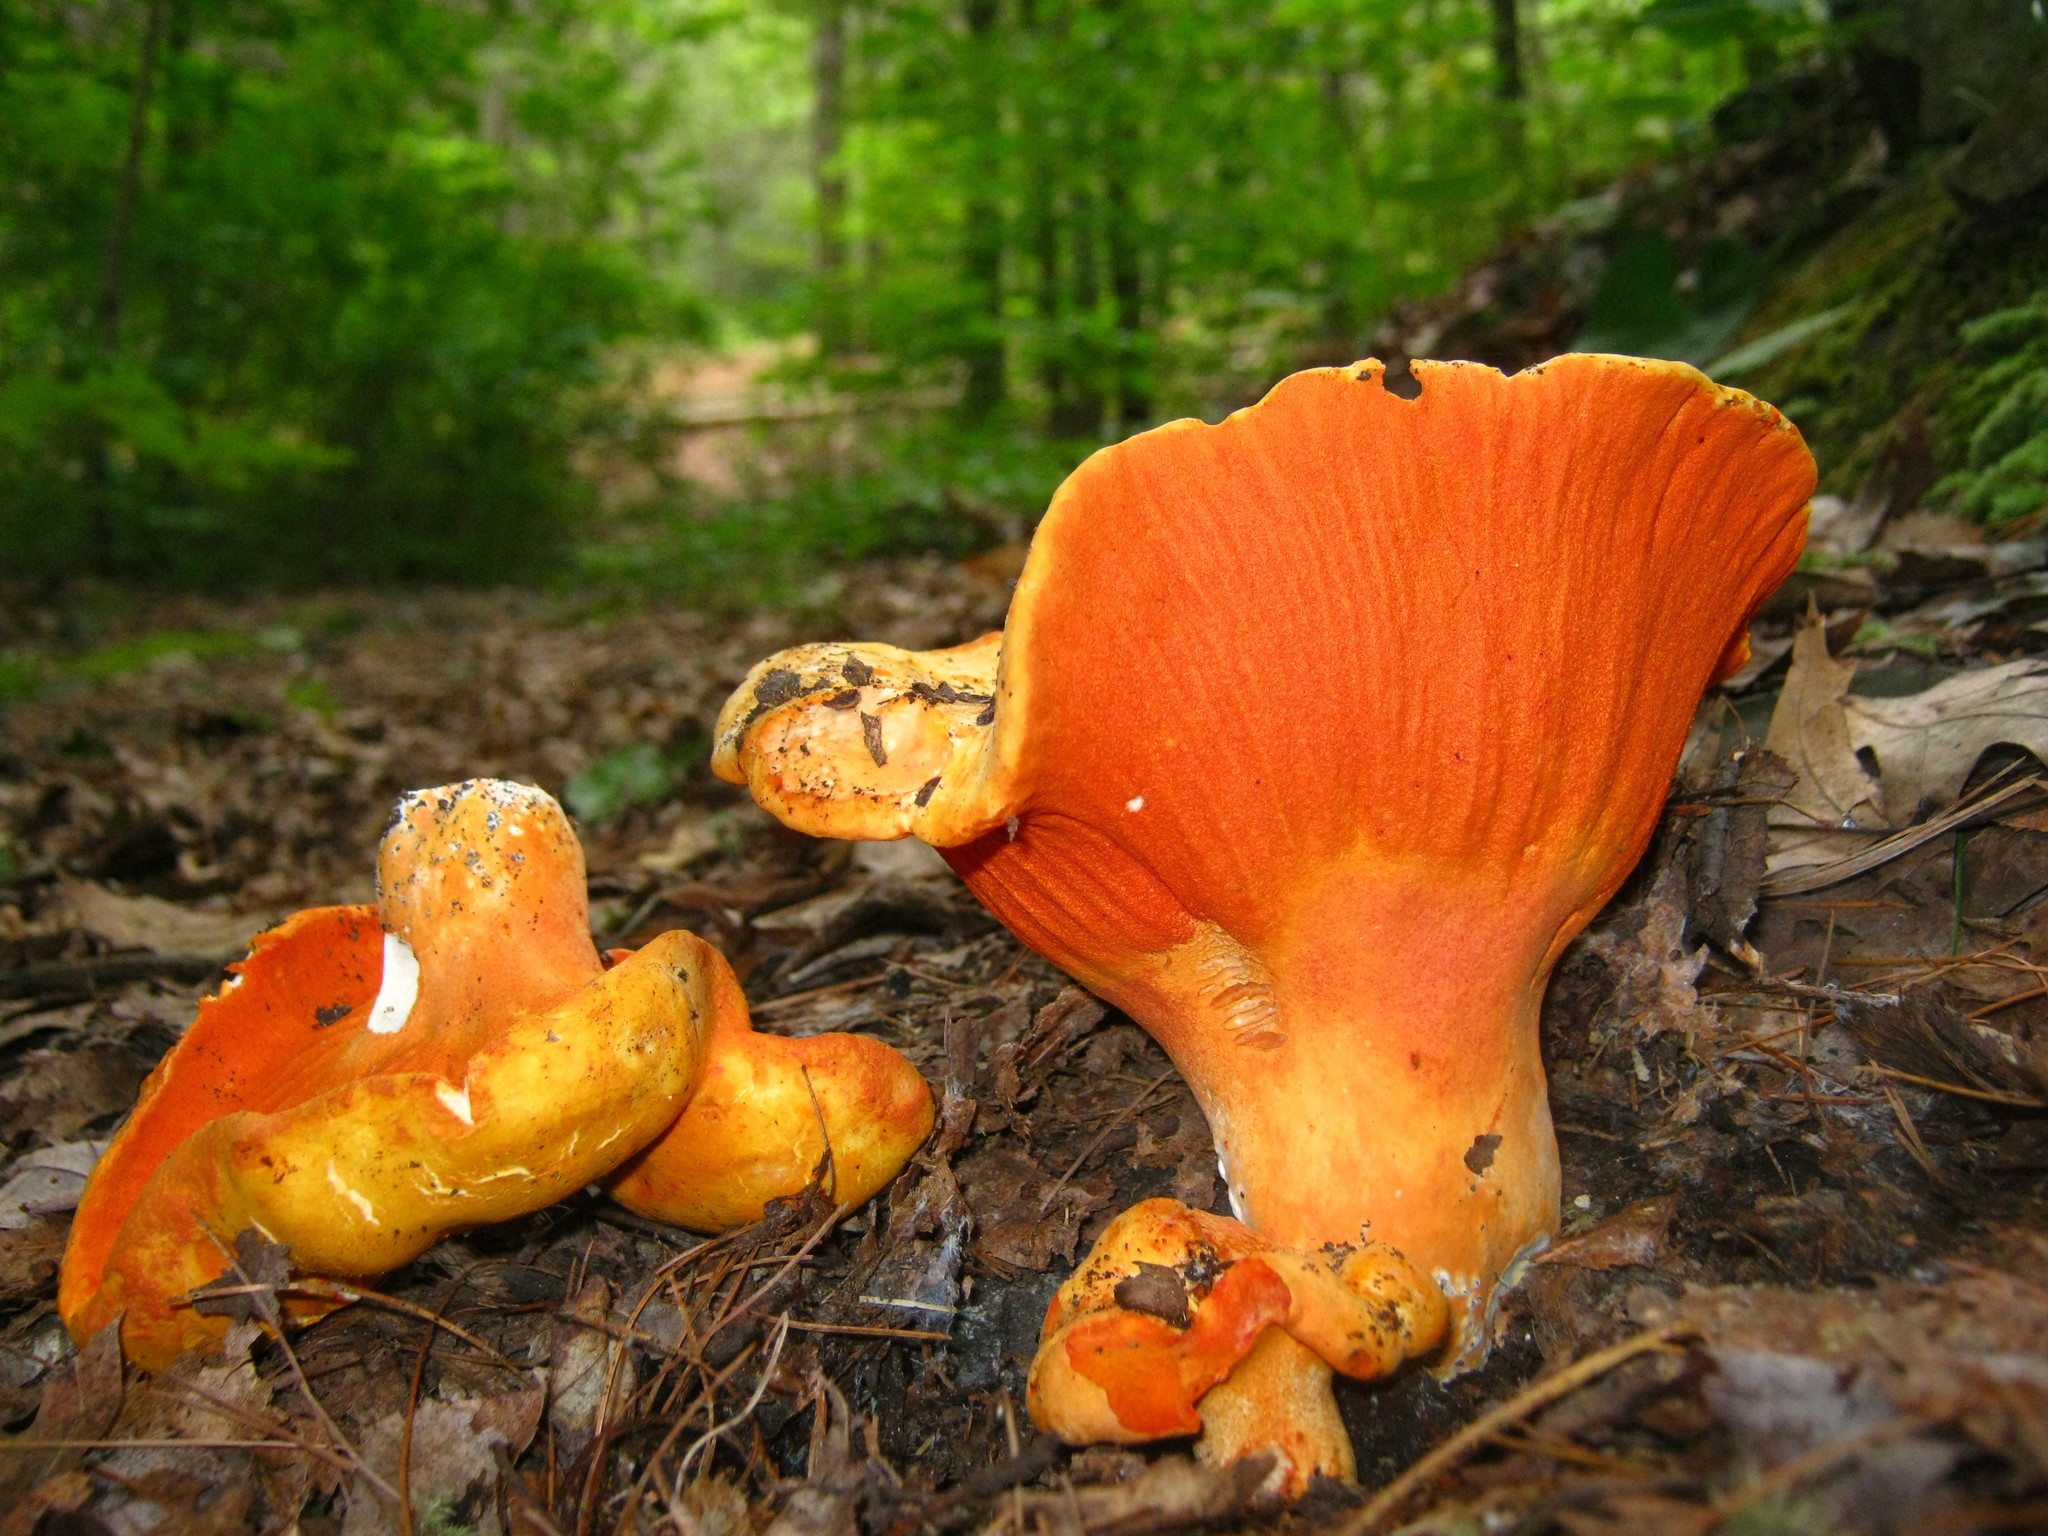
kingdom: Fungi
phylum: Ascomycota
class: Sordariomycetes
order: Hypocreales
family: Hypocreaceae
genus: Hypomyces
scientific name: Hypomyces lactifluorum
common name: Lobster mushroom
